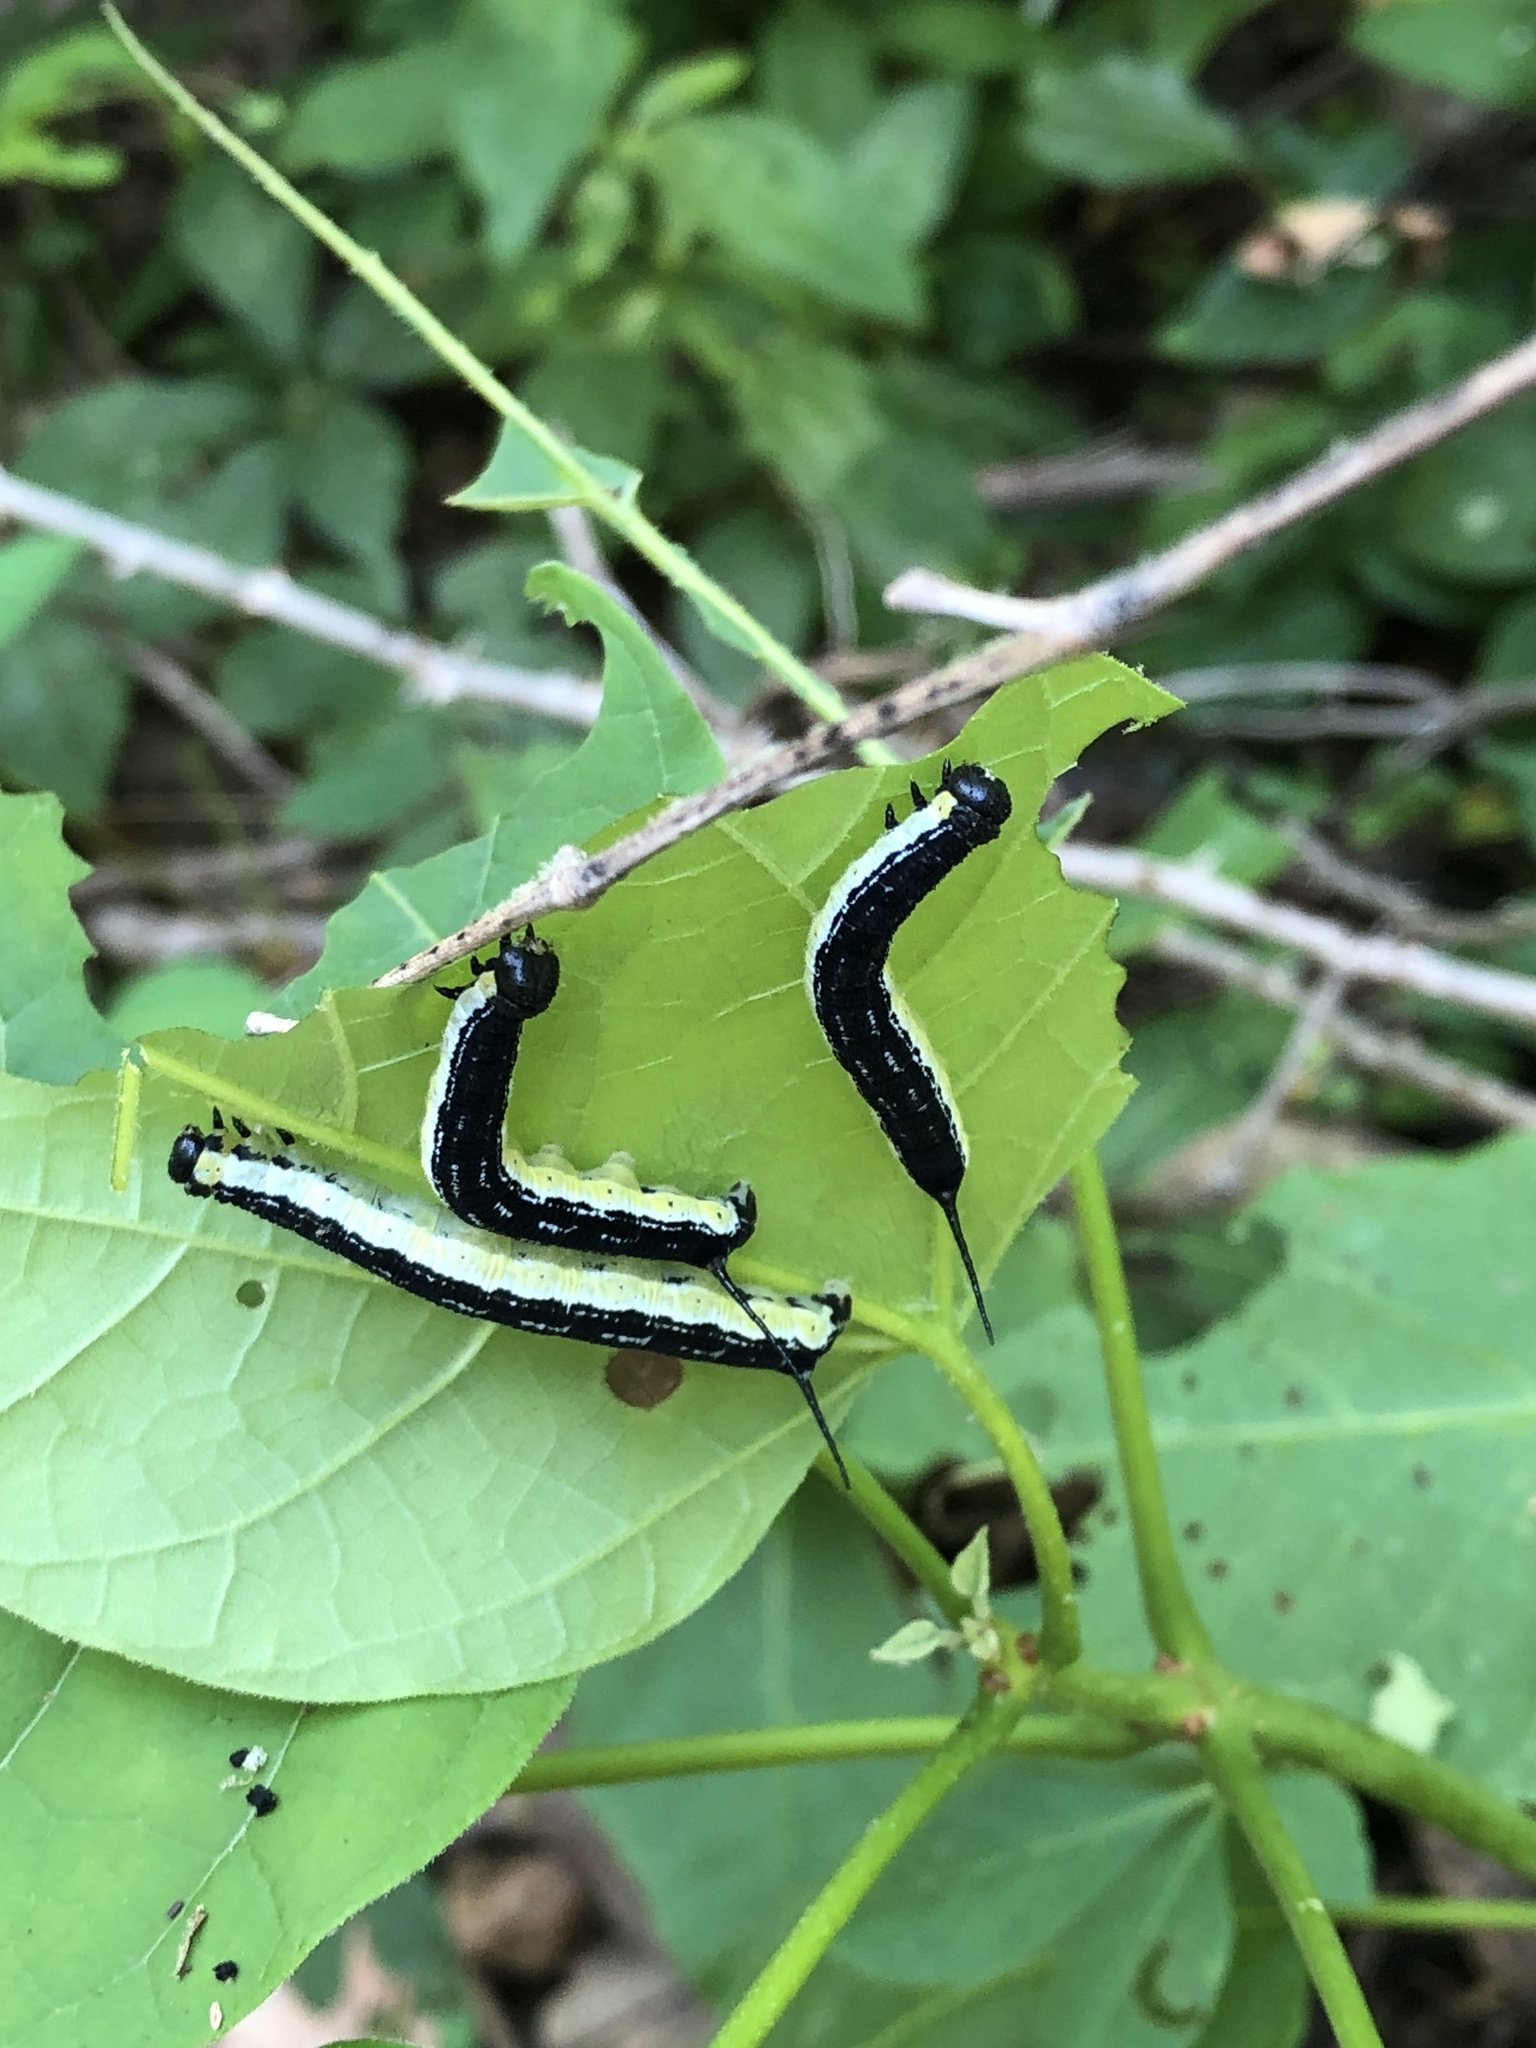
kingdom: Animalia
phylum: Arthropoda
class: Insecta
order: Lepidoptera
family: Sphingidae
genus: Ceratomia
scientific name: Ceratomia catalpae
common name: Catalpa hornworm
